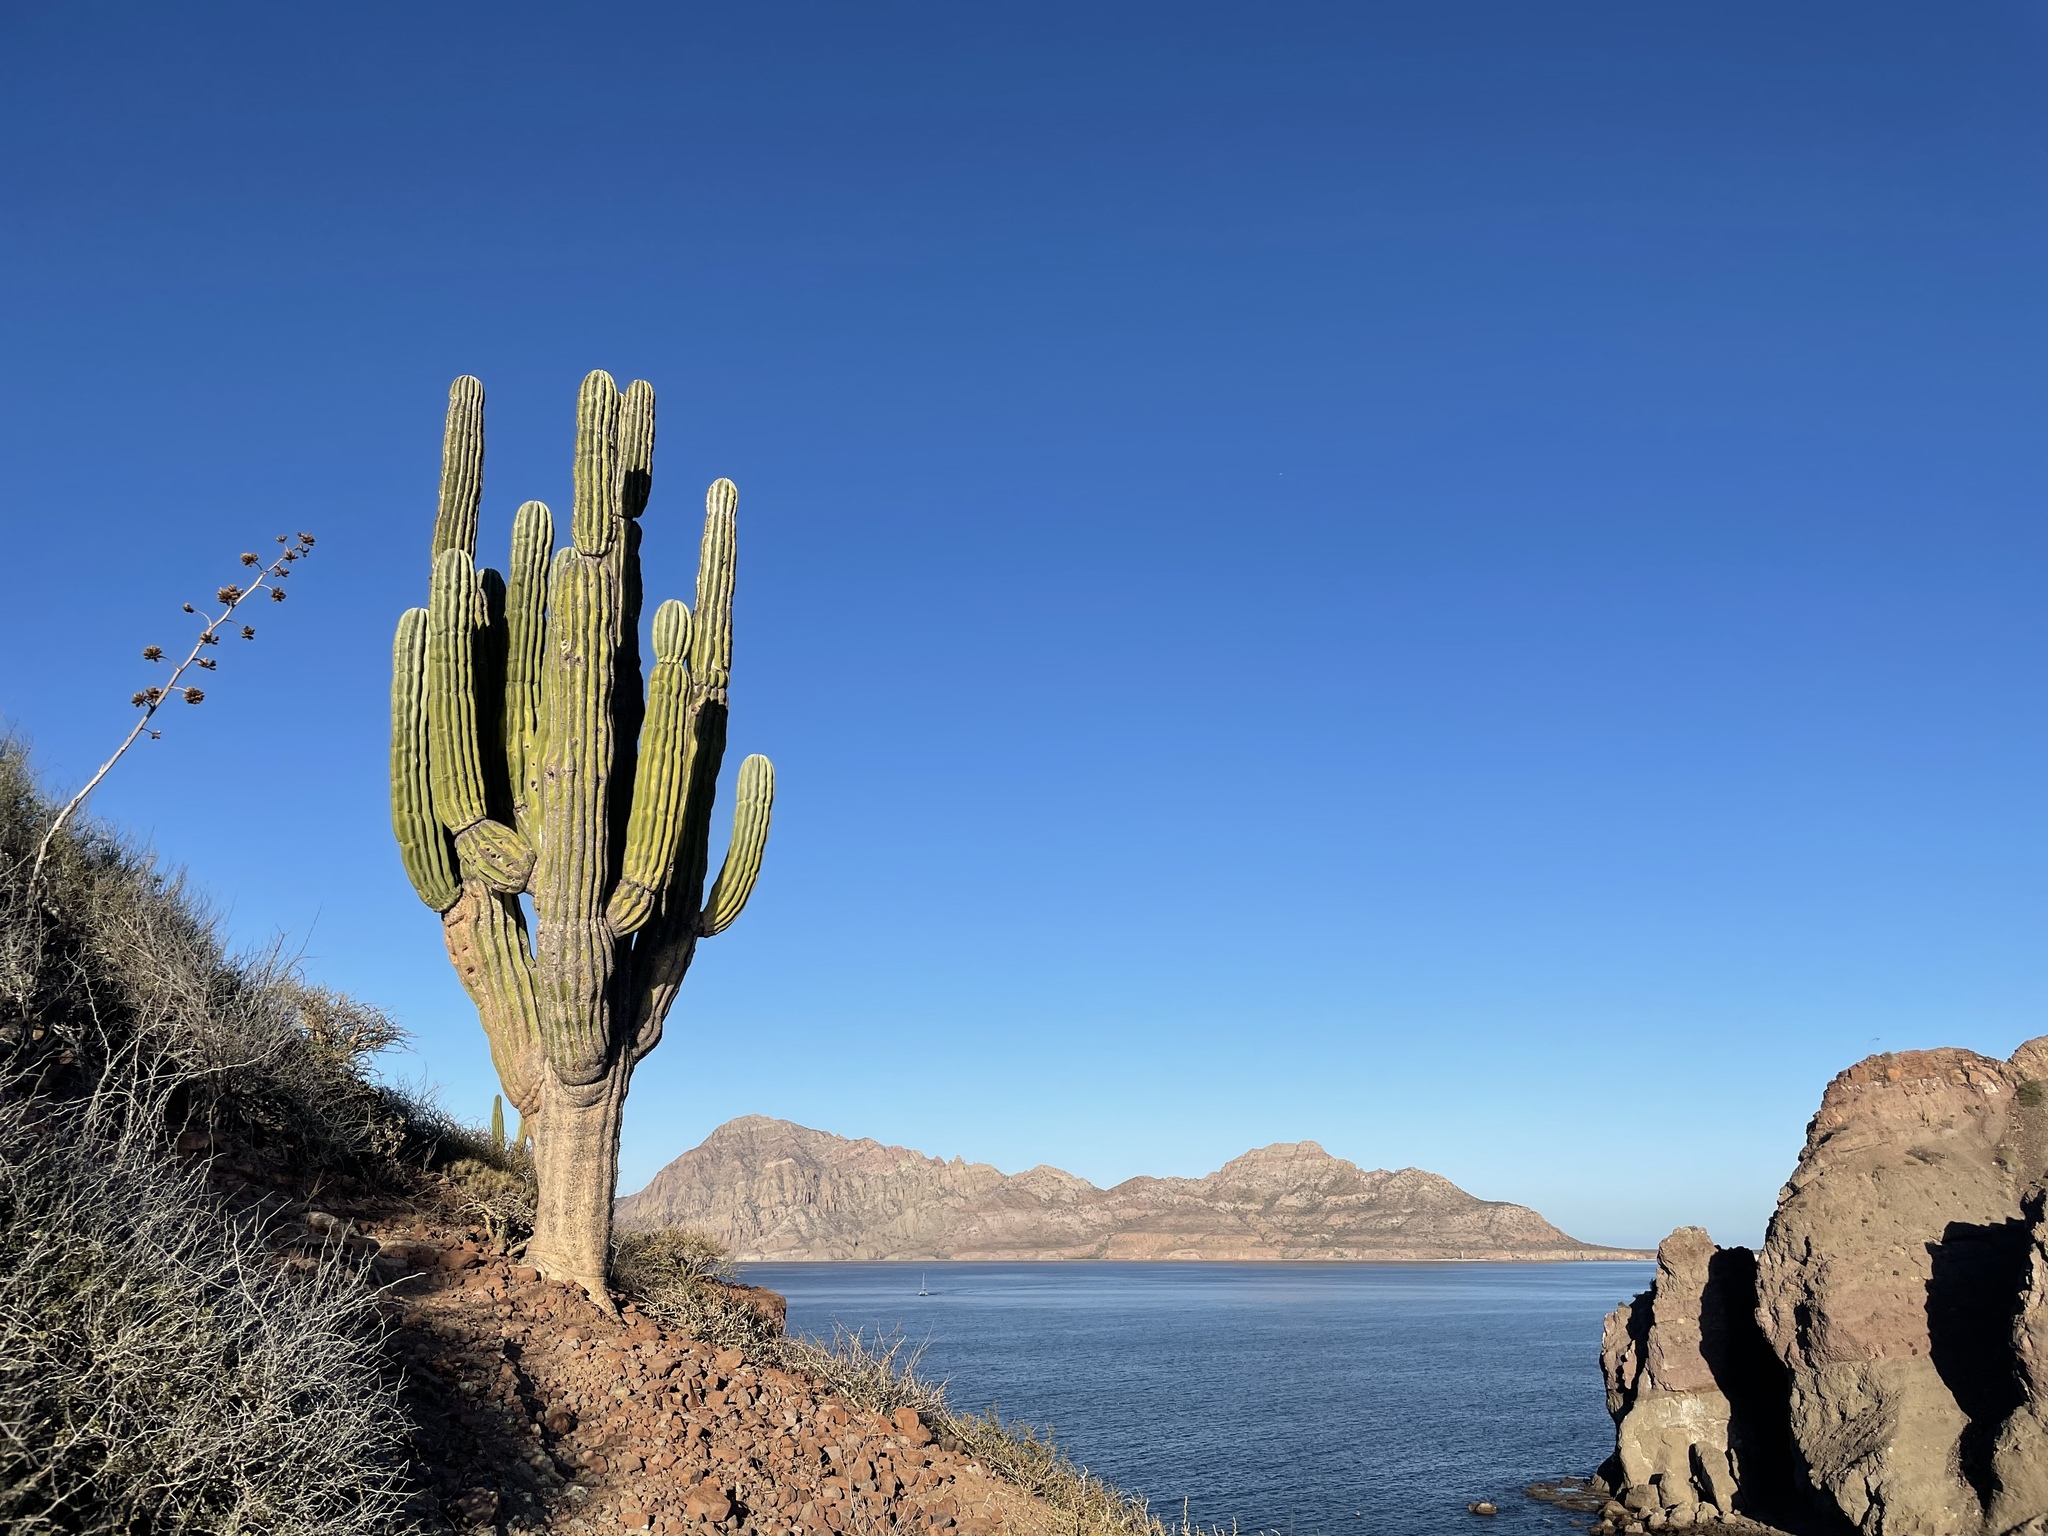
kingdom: Plantae
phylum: Tracheophyta
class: Magnoliopsida
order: Caryophyllales
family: Cactaceae
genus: Pachycereus
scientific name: Pachycereus pringlei
